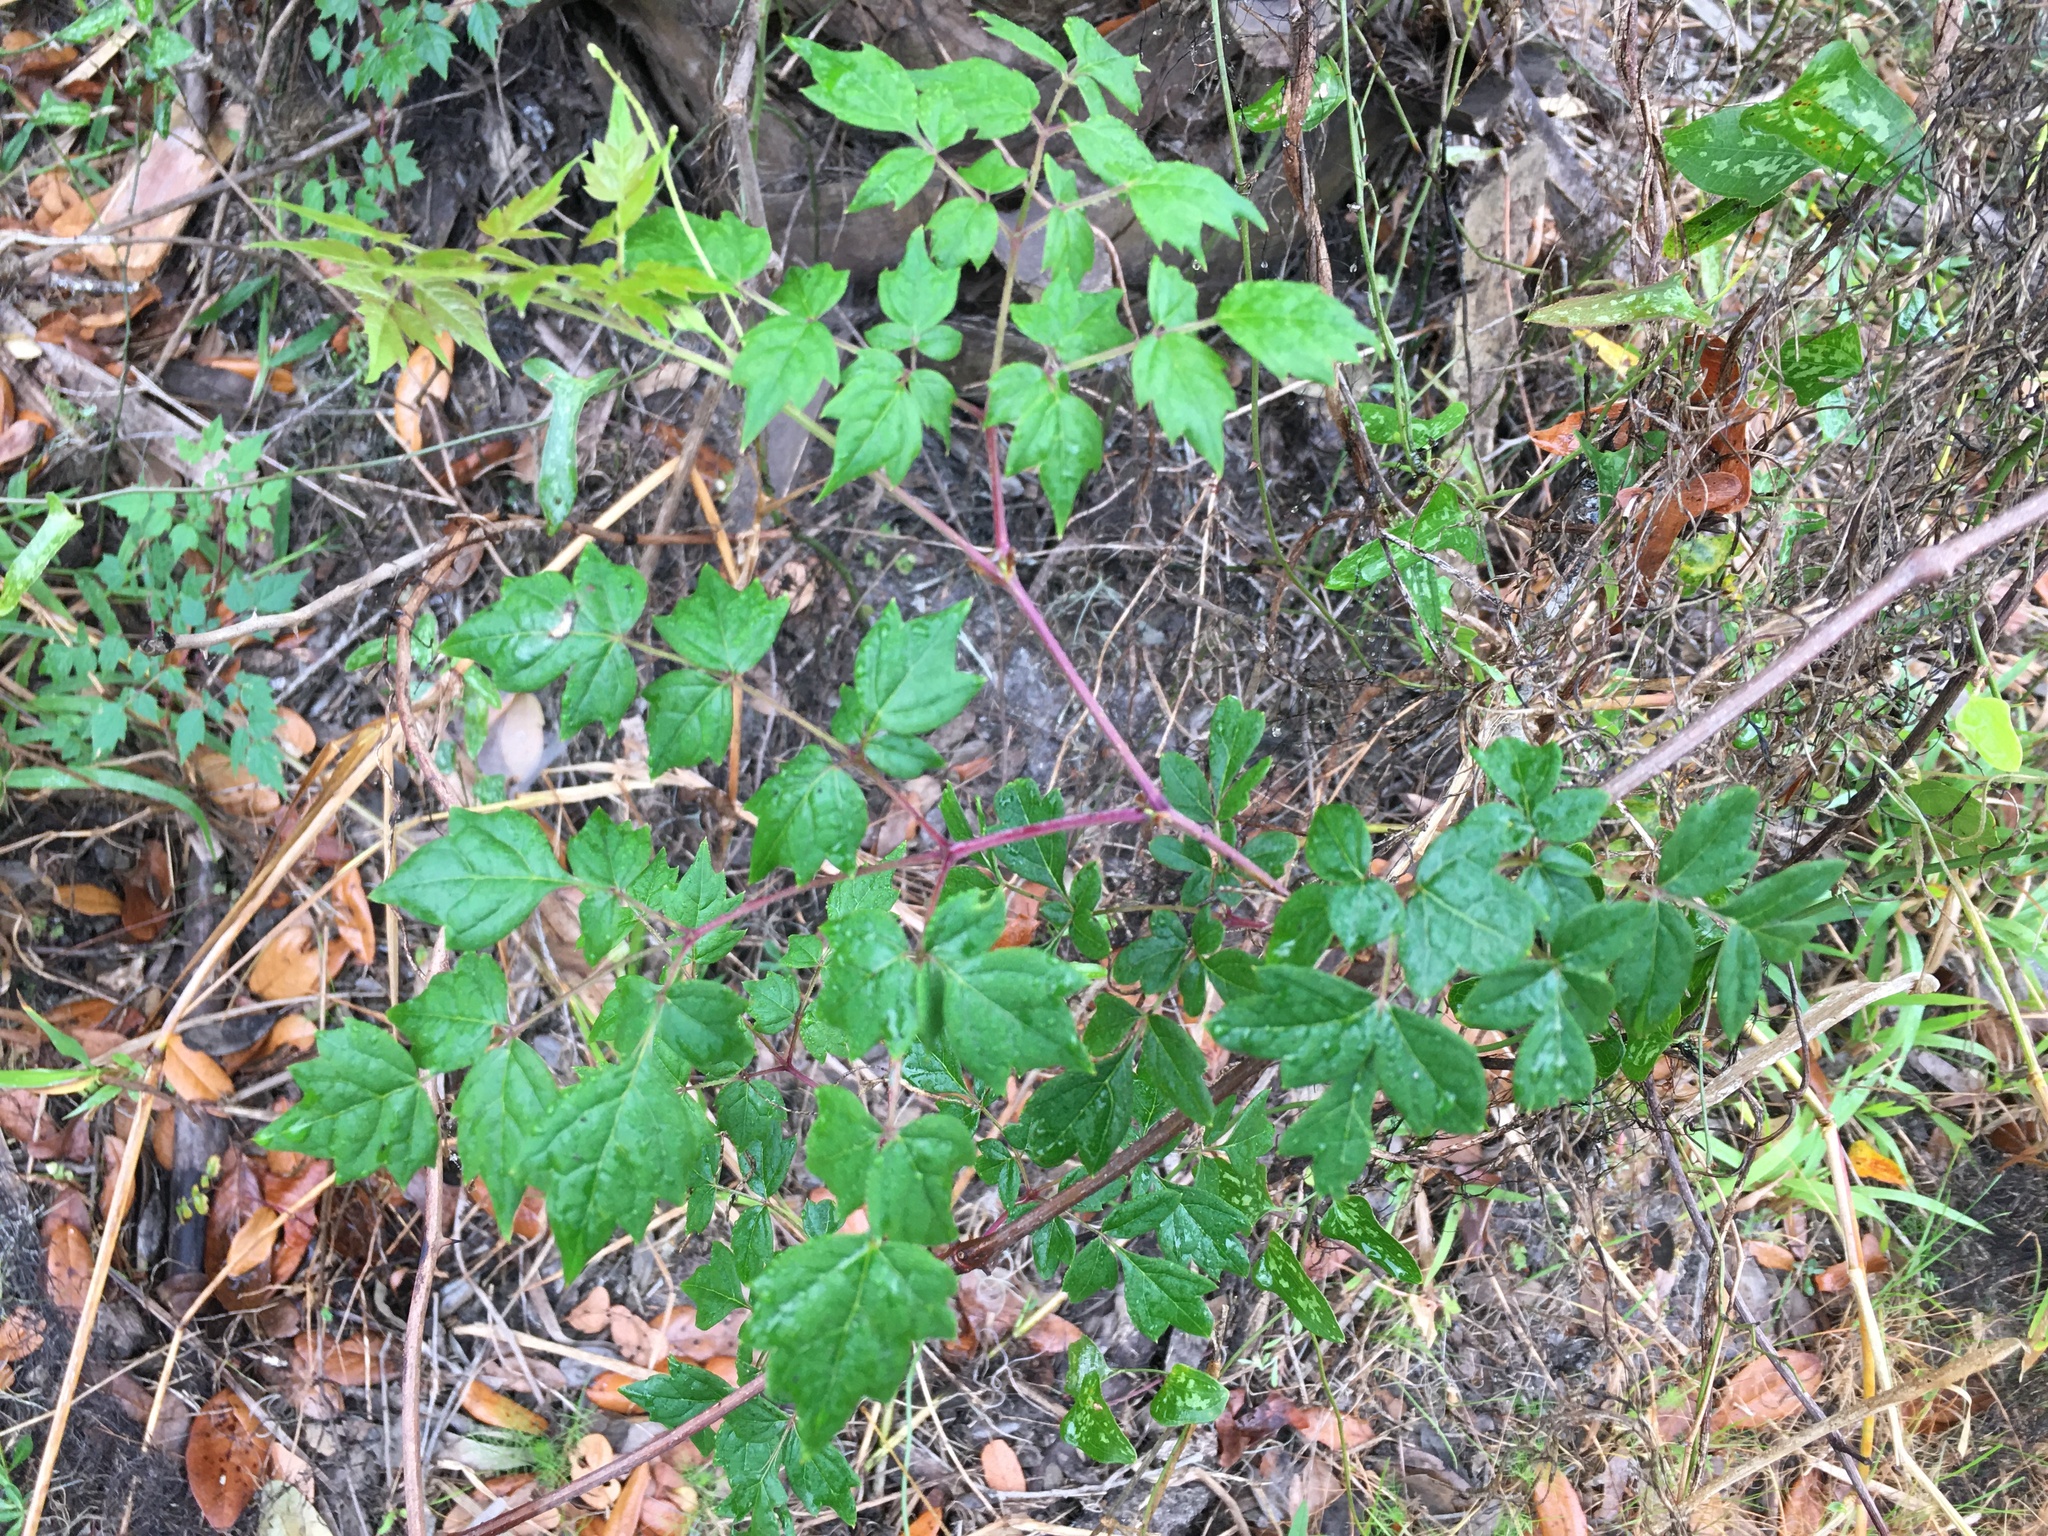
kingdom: Plantae
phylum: Tracheophyta
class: Magnoliopsida
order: Vitales
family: Vitaceae
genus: Nekemias
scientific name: Nekemias arborea
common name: Peppervine
